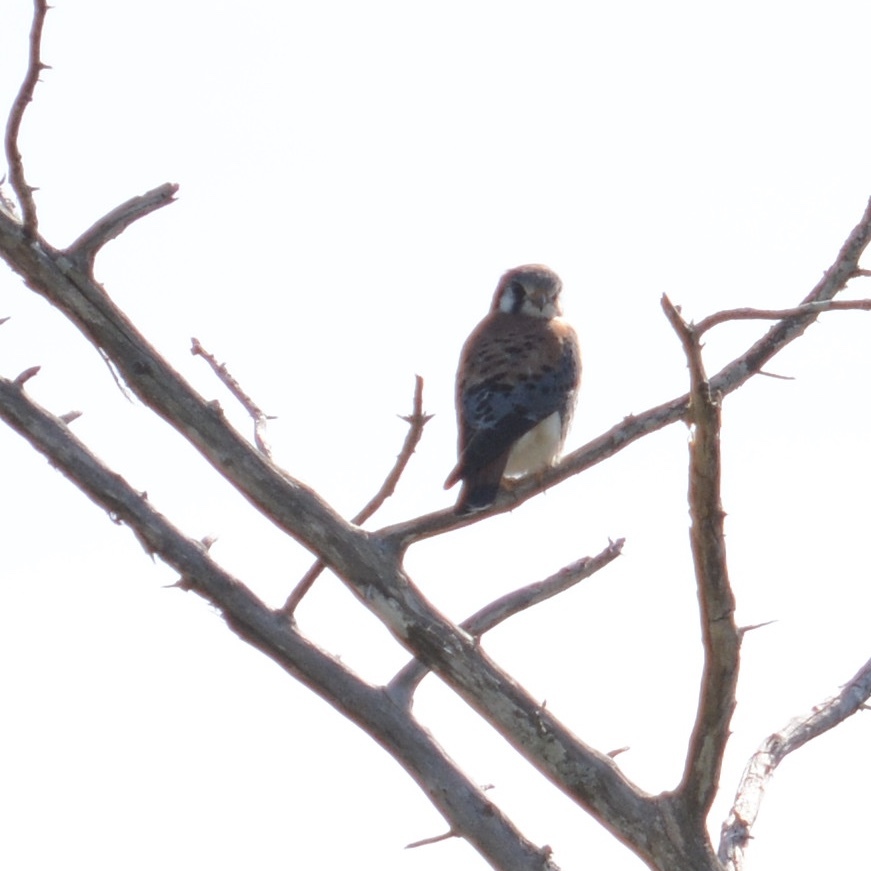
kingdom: Animalia
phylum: Chordata
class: Aves
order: Falconiformes
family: Falconidae
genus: Falco
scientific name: Falco sparverius
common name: American kestrel
